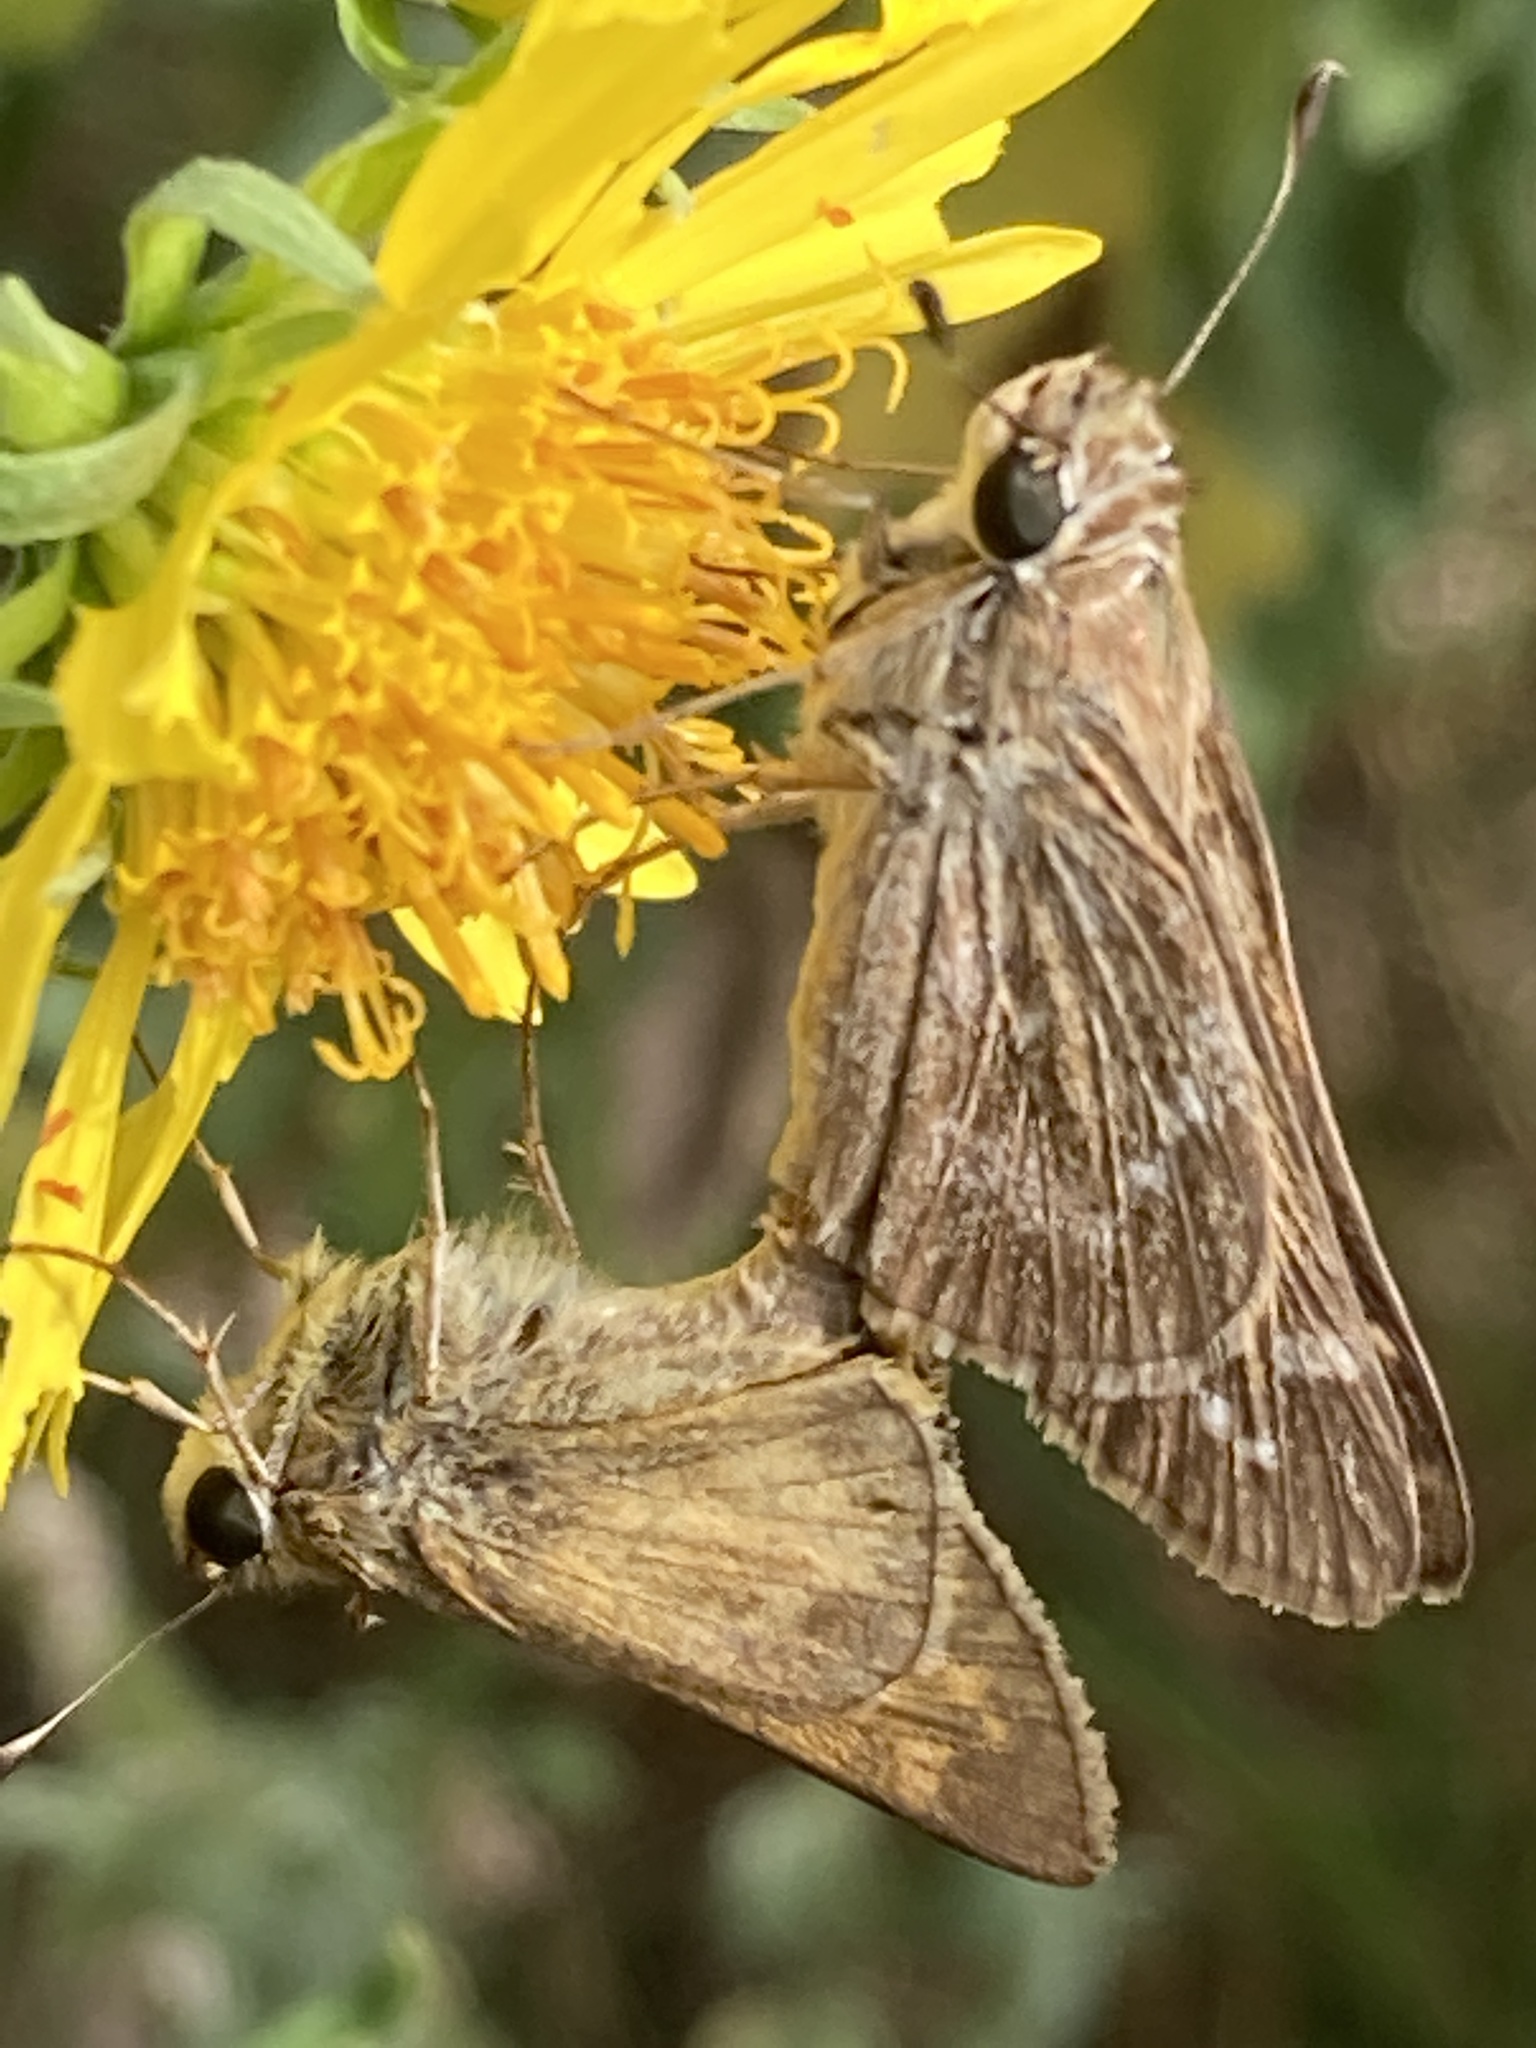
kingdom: Animalia
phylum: Arthropoda
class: Insecta
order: Lepidoptera
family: Hesperiidae
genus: Atalopedes
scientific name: Atalopedes
